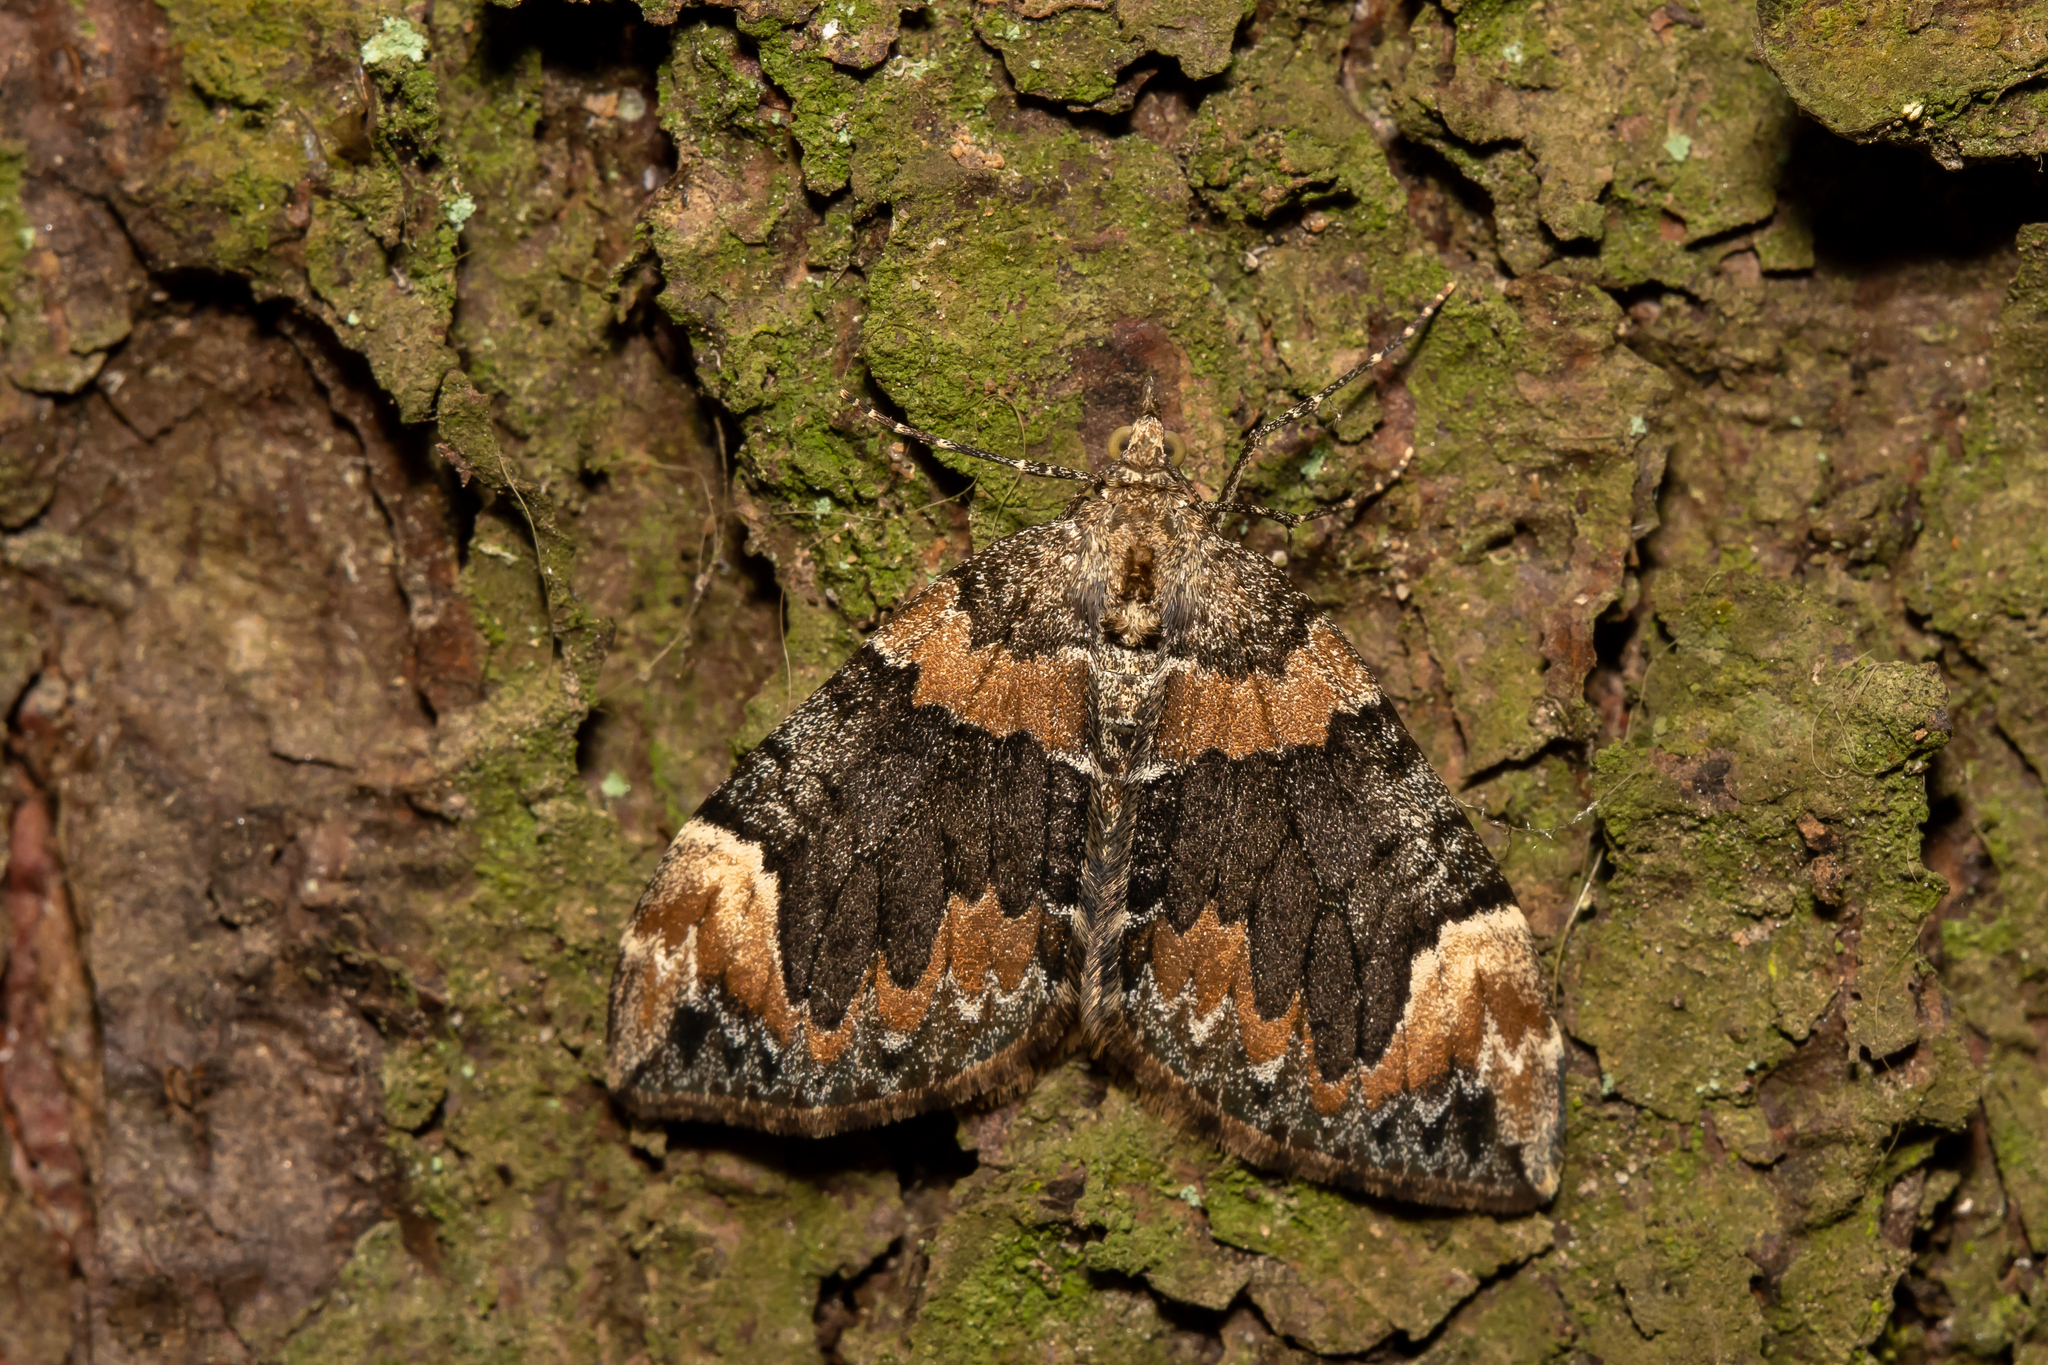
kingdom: Animalia
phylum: Arthropoda
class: Insecta
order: Lepidoptera
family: Geometridae
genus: Dysstroma
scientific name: Dysstroma citrata
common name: Dark marbled carpet
